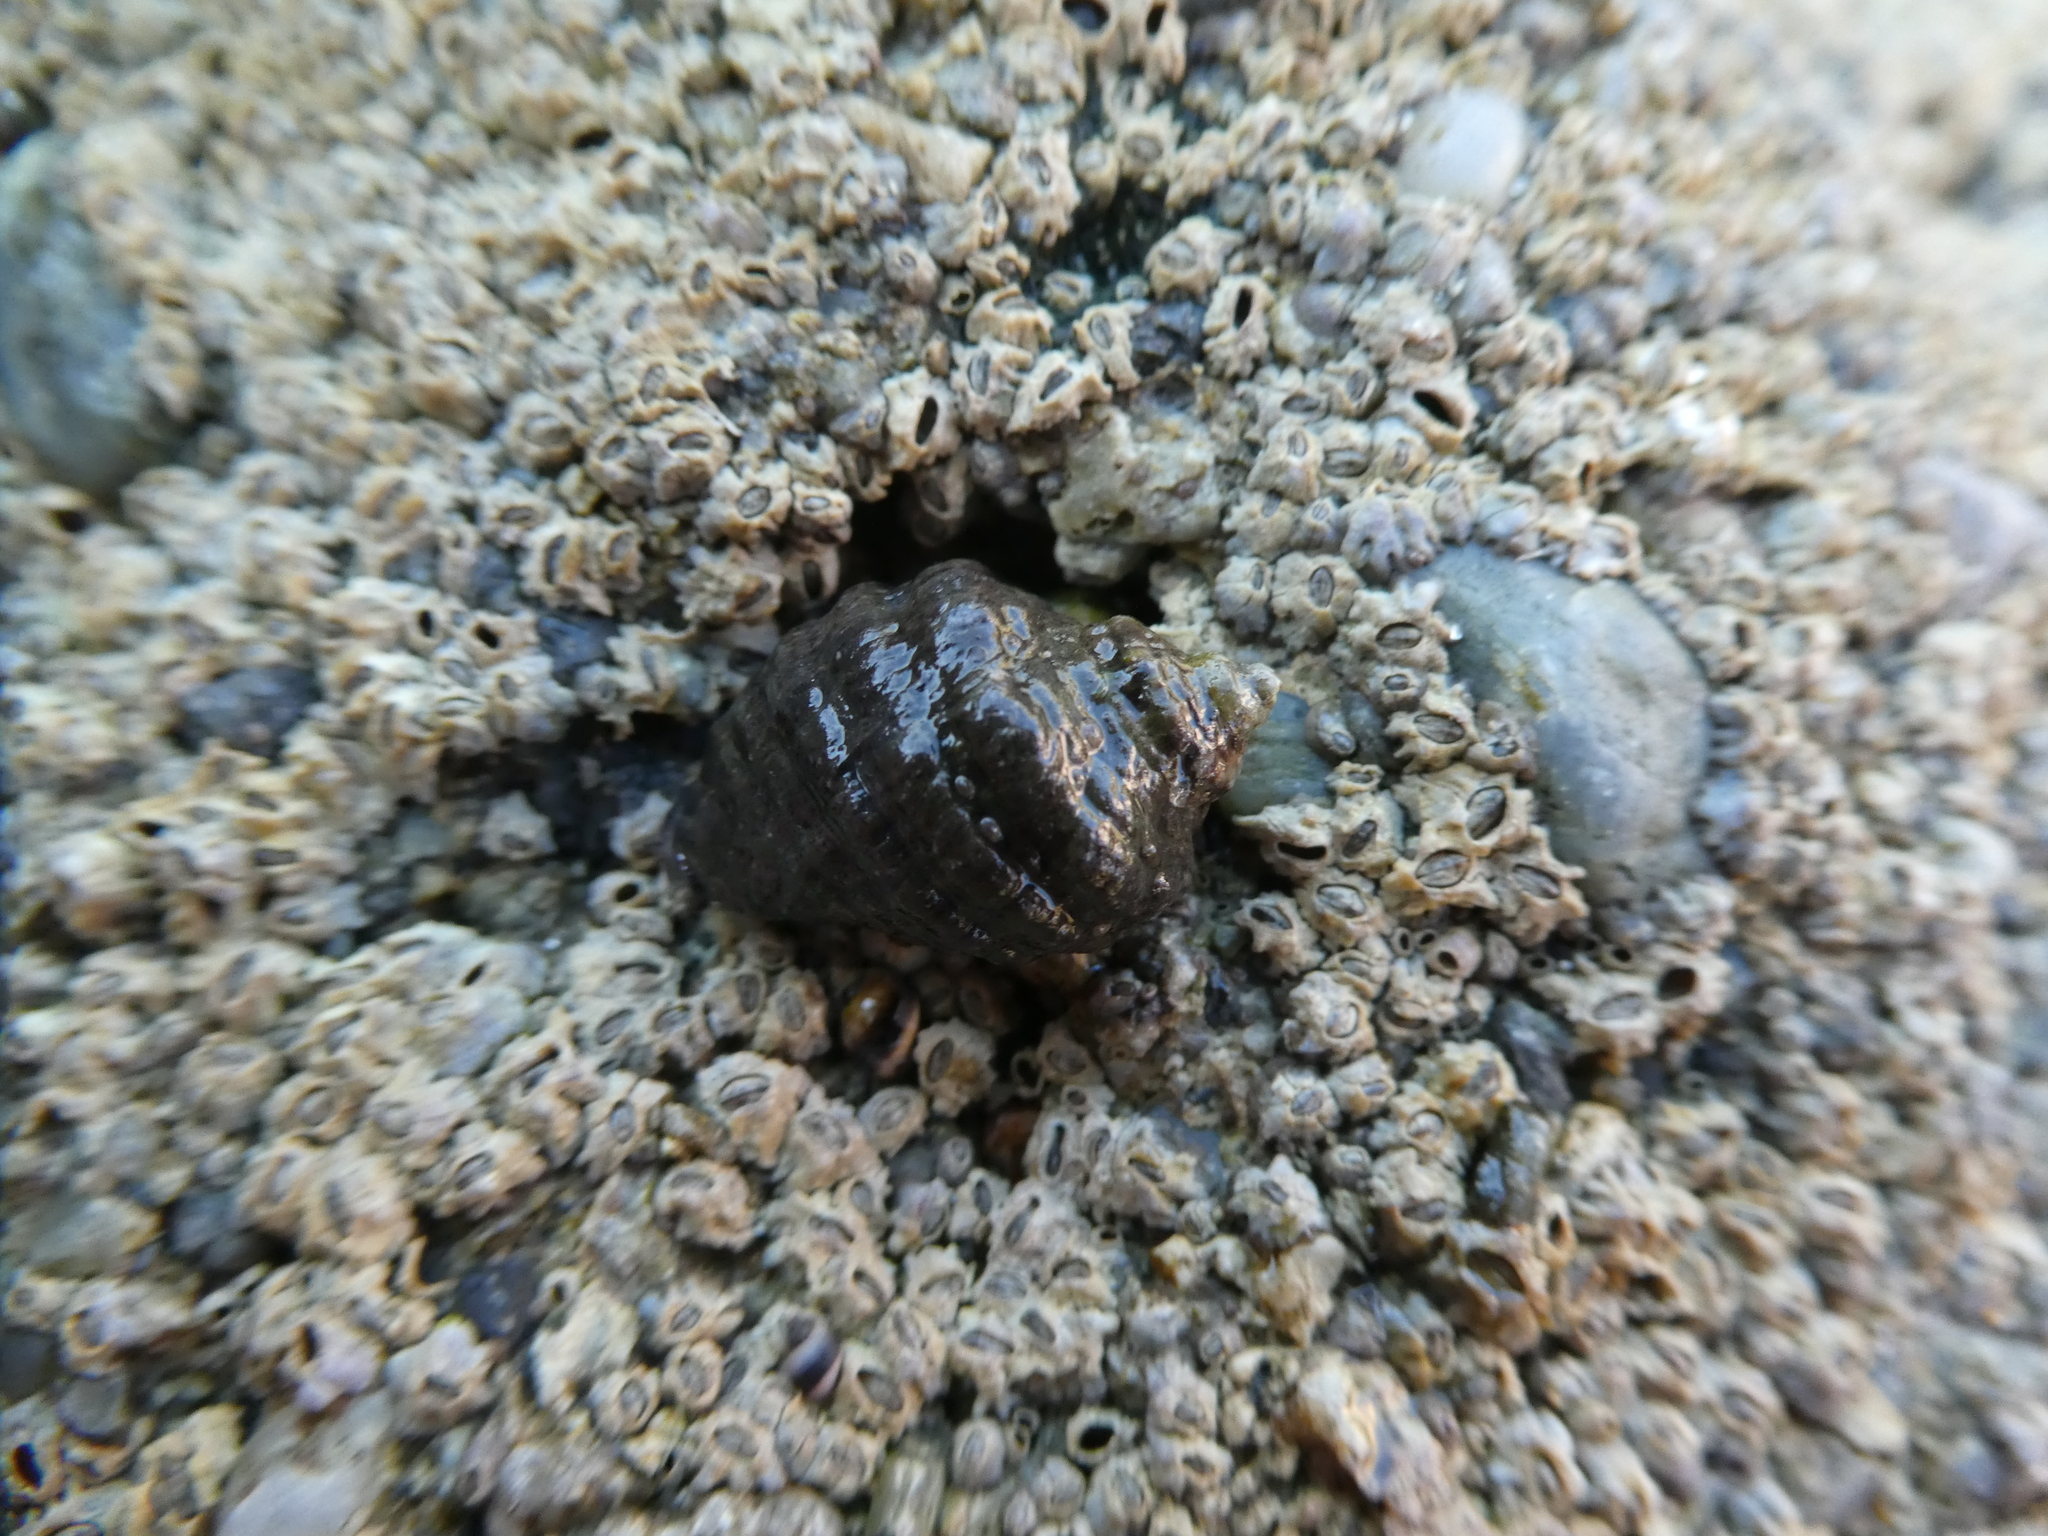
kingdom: Animalia
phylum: Mollusca
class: Gastropoda
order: Neogastropoda
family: Muricidae
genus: Mexacanthina
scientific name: Mexacanthina lugubris
